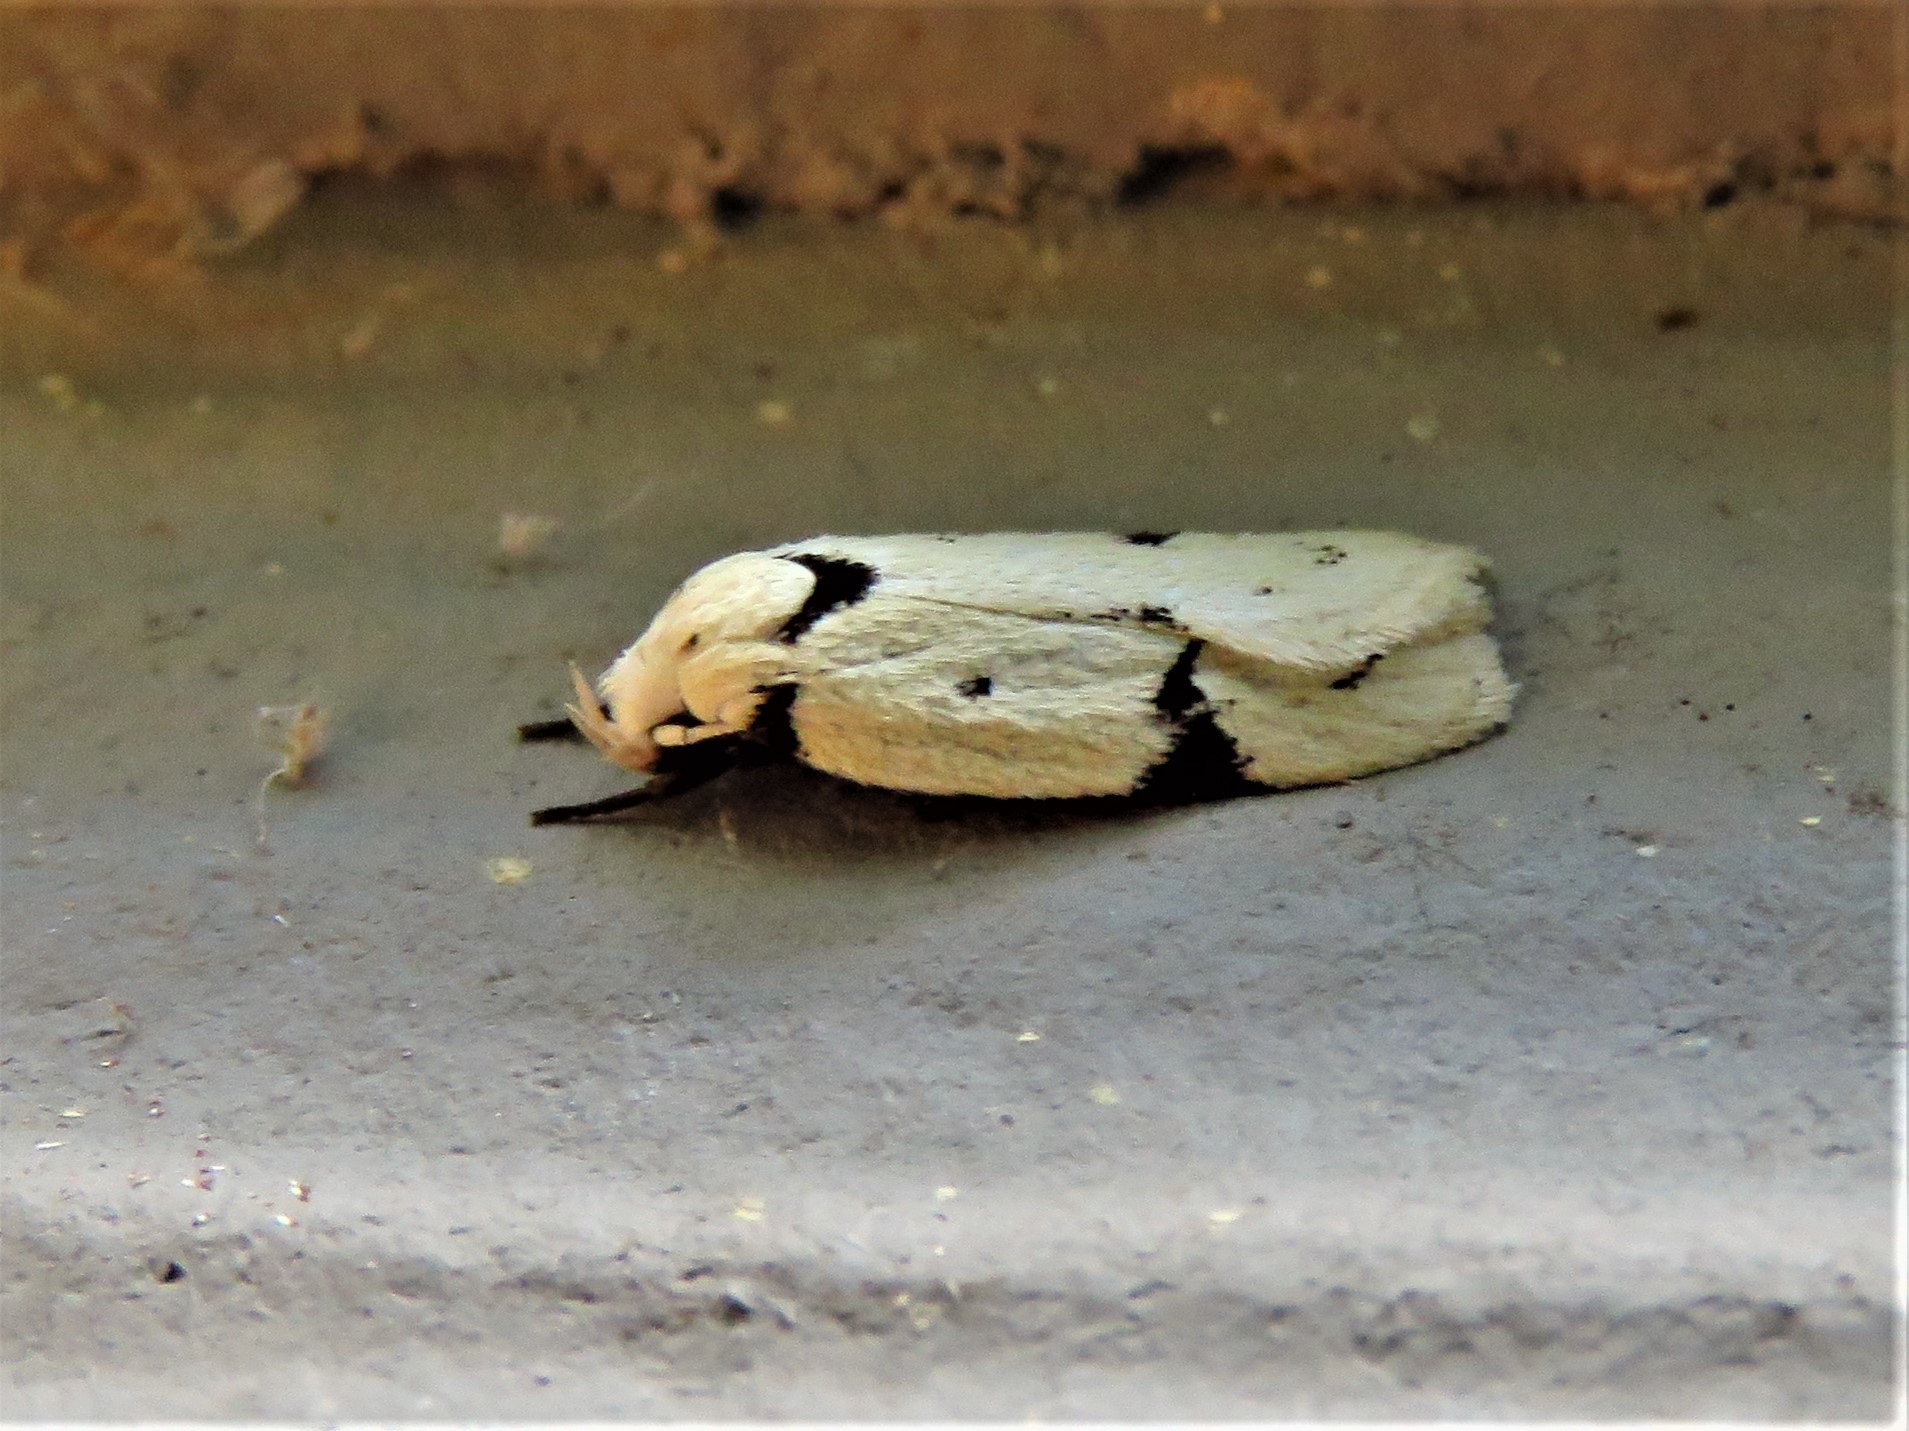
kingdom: Animalia
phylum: Arthropoda
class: Insecta
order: Lepidoptera
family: Oecophoridae
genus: Inga
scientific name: Inga sparsiciliella
